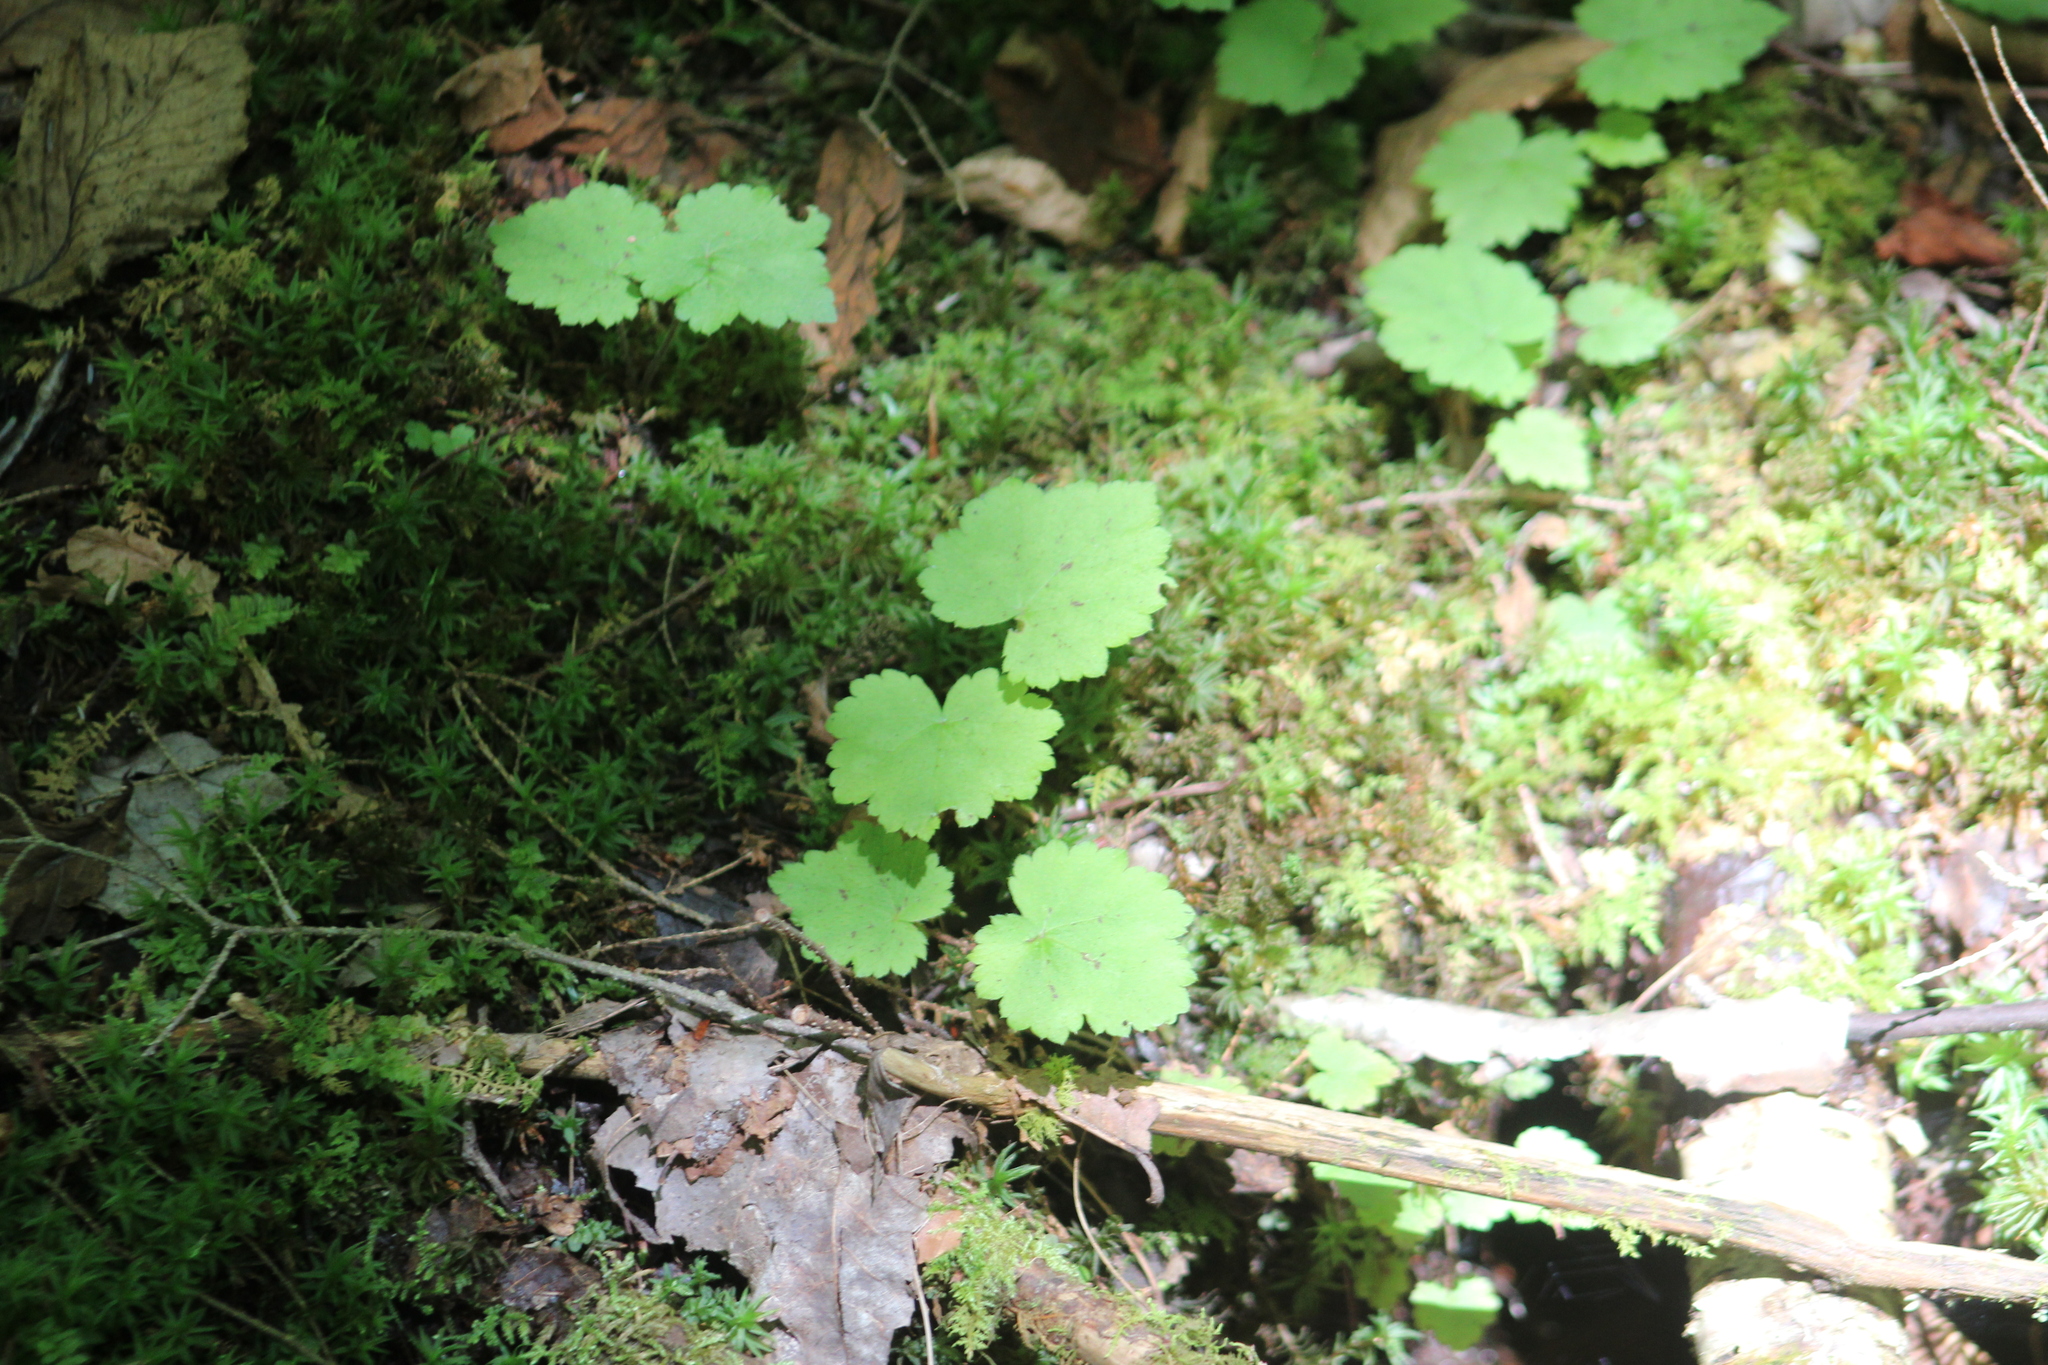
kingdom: Plantae
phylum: Tracheophyta
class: Magnoliopsida
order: Saxifragales
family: Saxifragaceae
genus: Tiarella
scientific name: Tiarella stolonifera
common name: Stoloniferous foamflower
